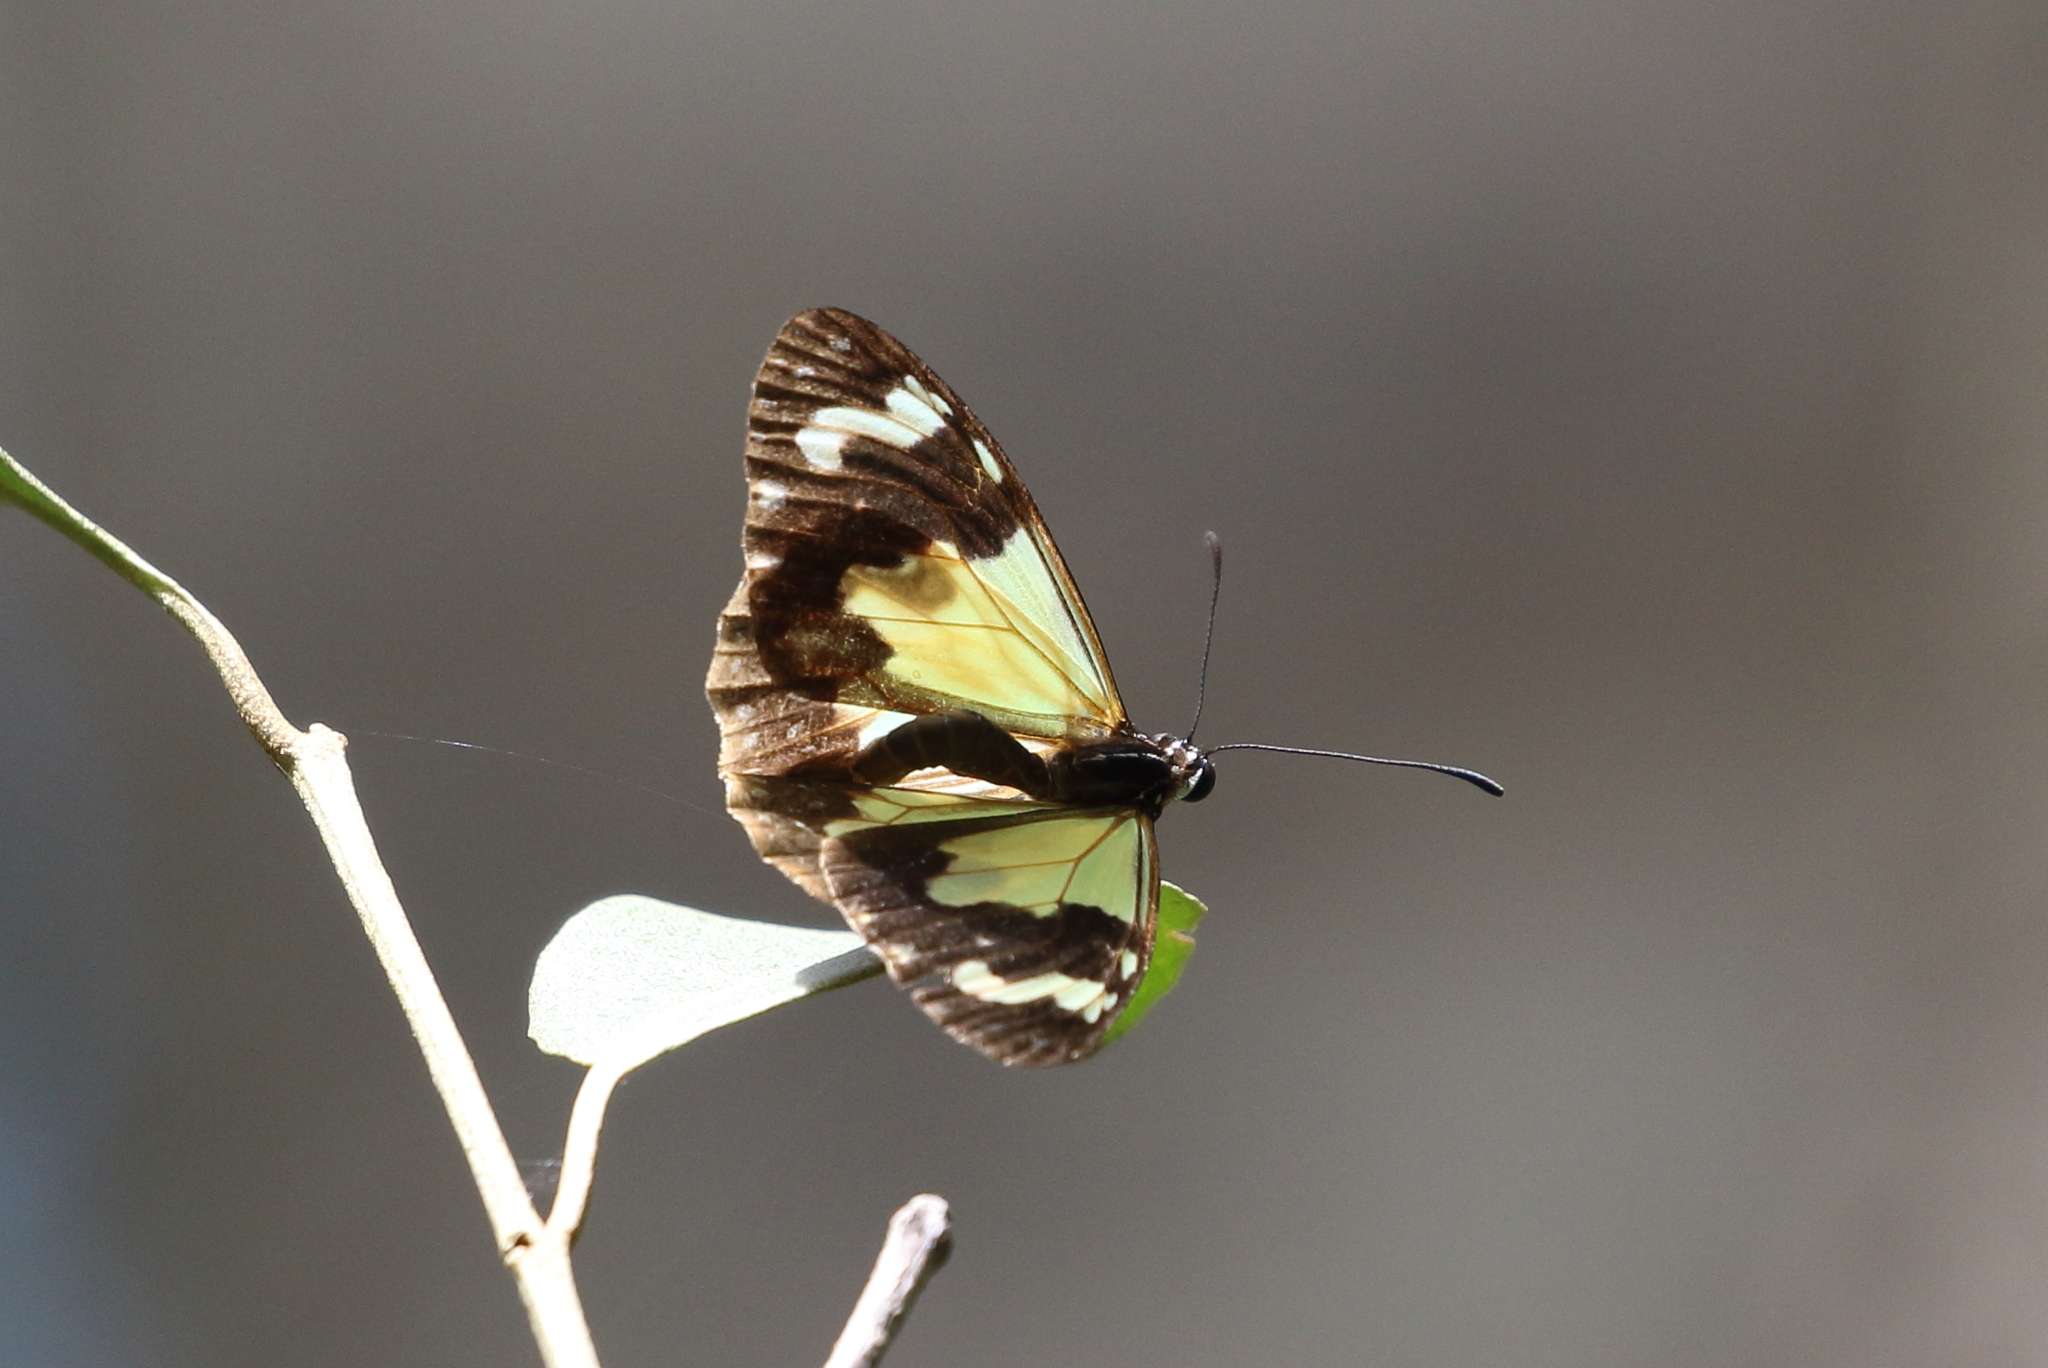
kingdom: Animalia
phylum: Arthropoda
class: Insecta
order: Lepidoptera
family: Nymphalidae
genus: Parantica
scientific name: Parantica pumila
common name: Least tiger
